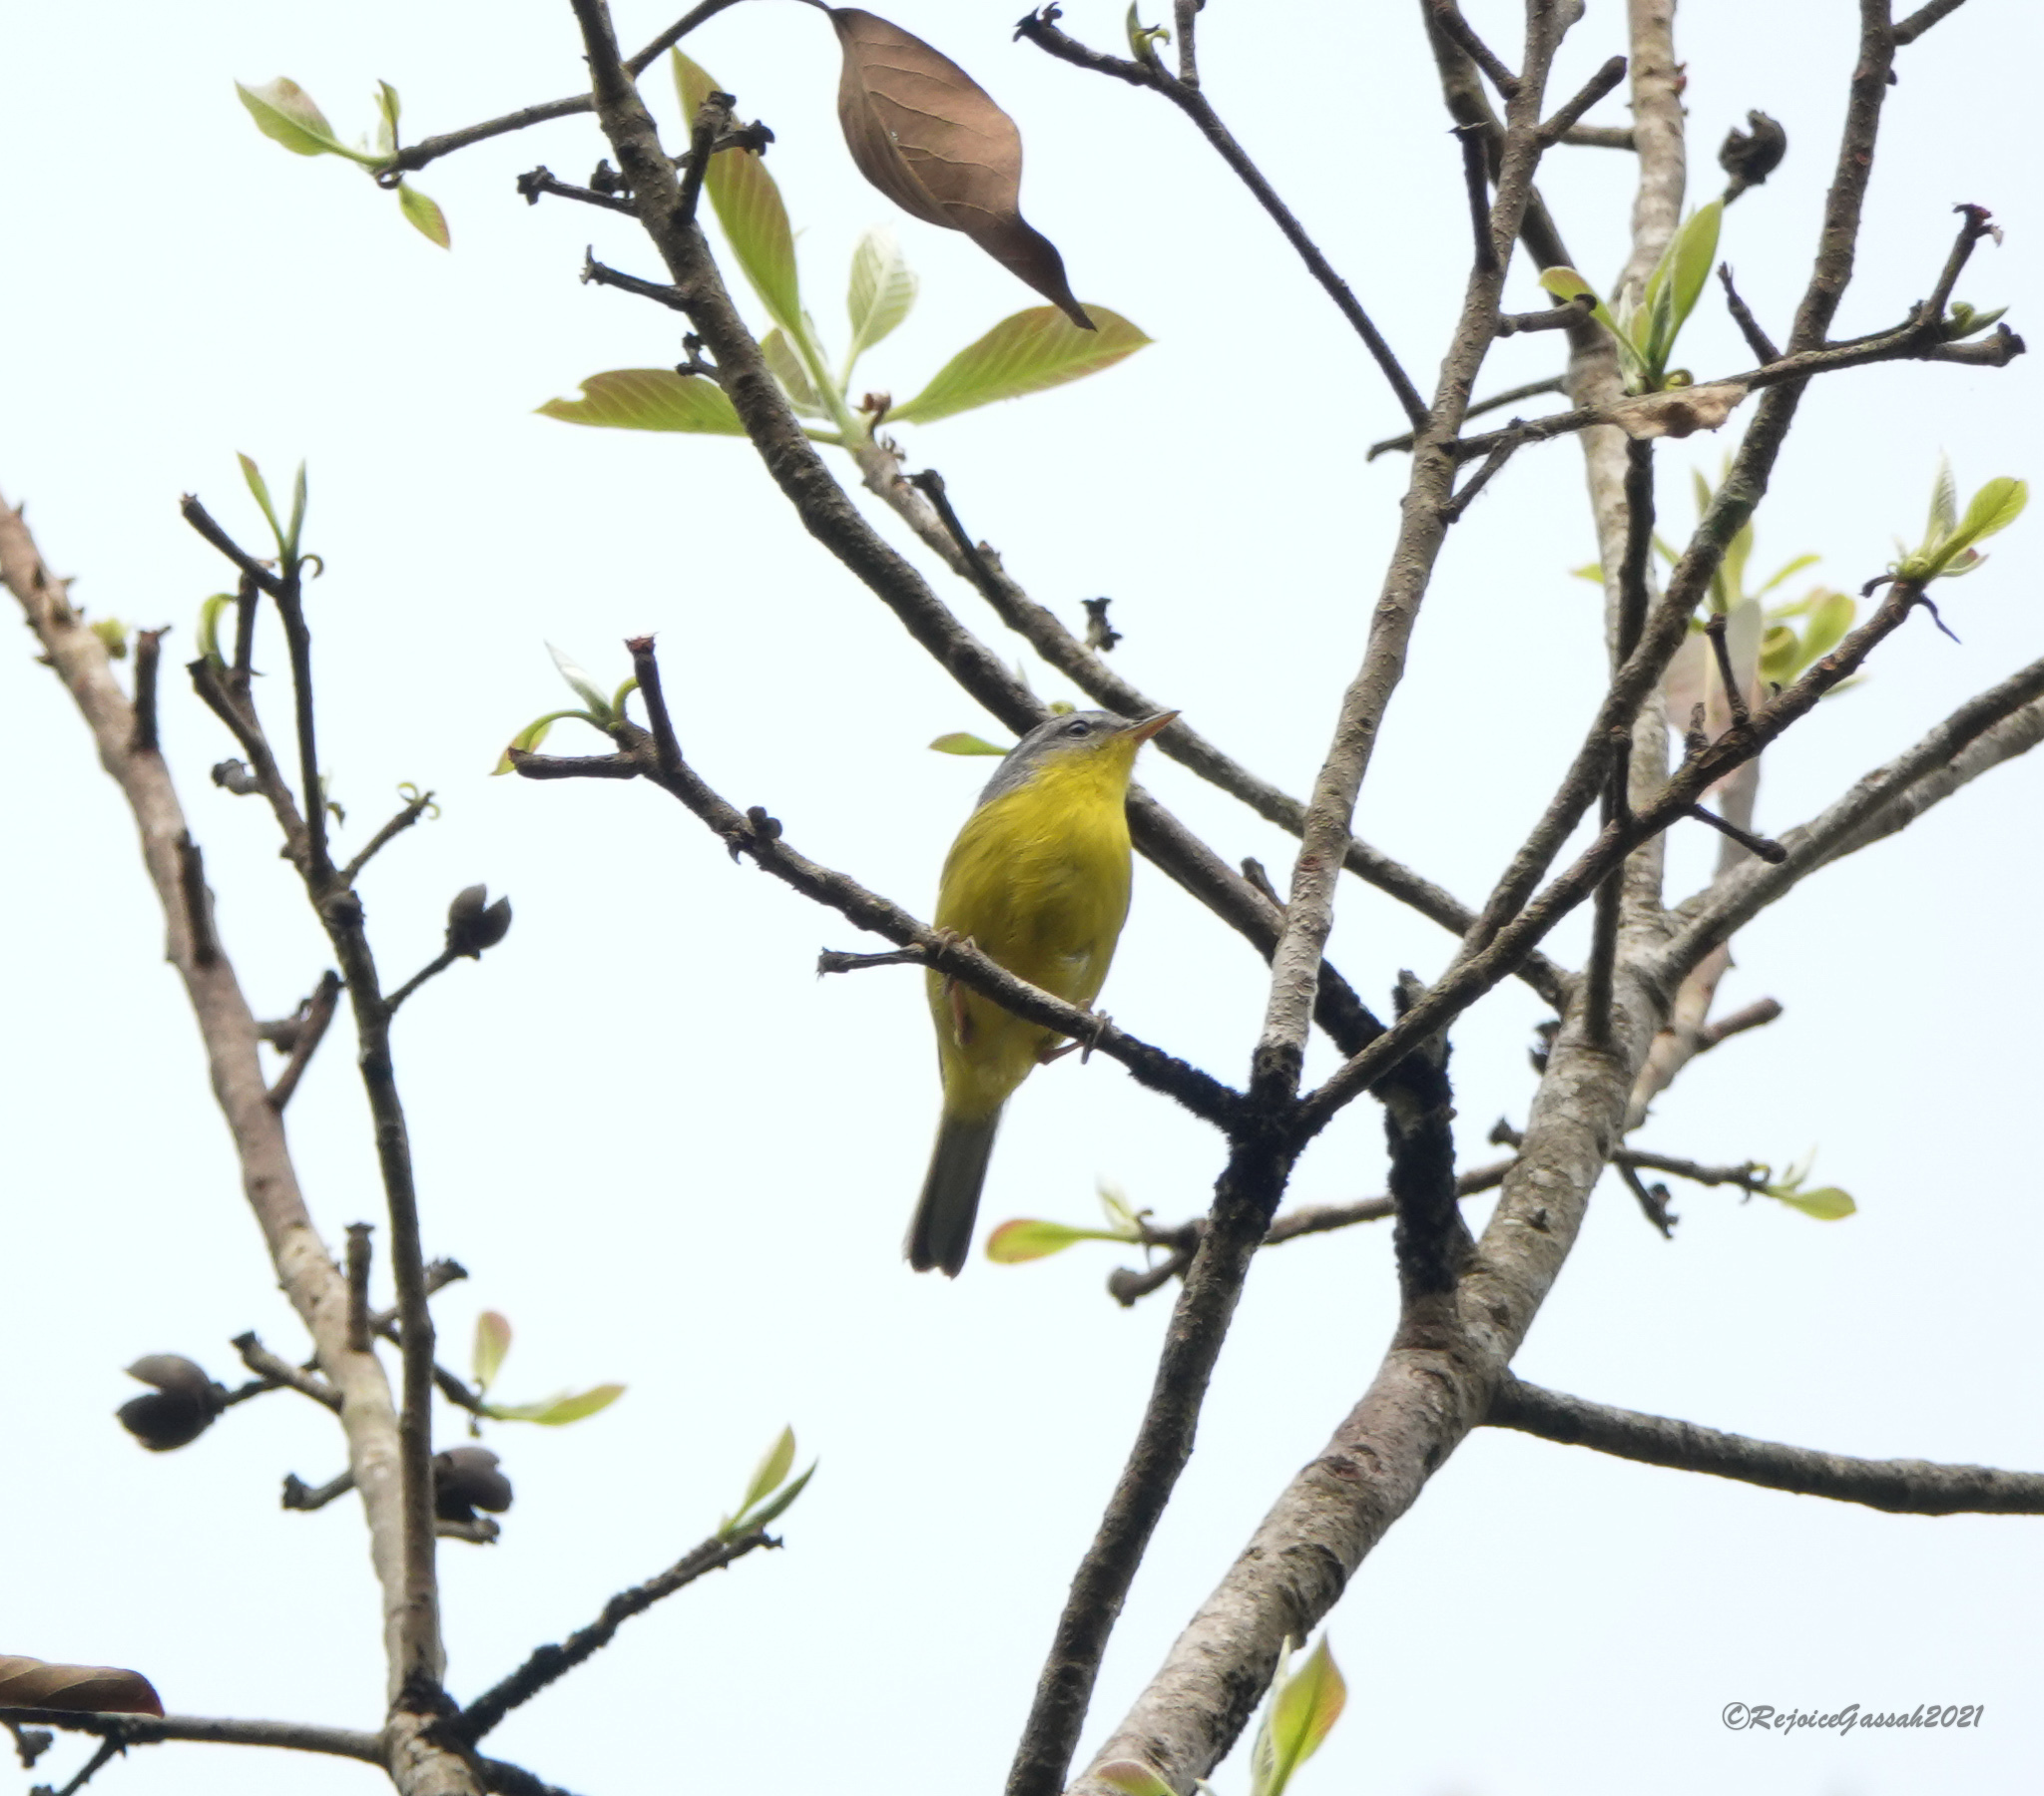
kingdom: Animalia
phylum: Chordata
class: Aves
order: Passeriformes
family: Phylloscopidae
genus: Phylloscopus
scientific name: Phylloscopus xanthoschistos
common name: Grey-hooded warbler
